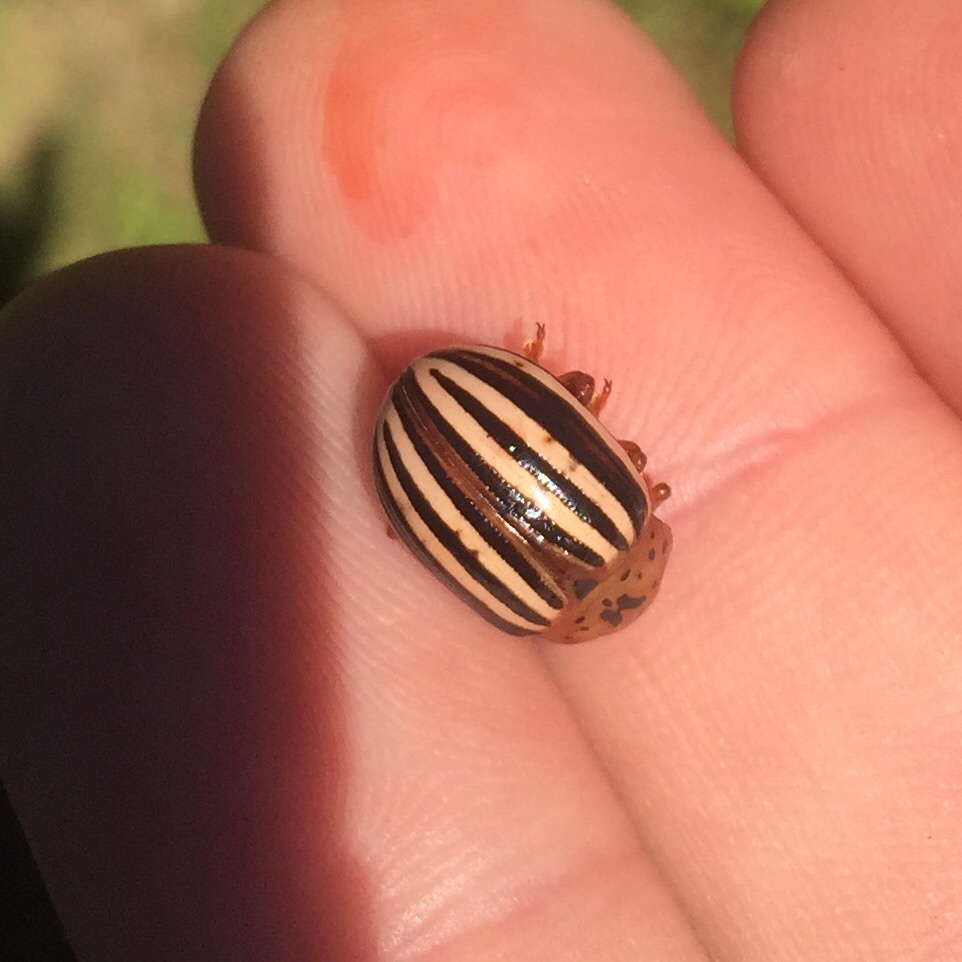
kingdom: Animalia
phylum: Arthropoda
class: Insecta
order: Coleoptera
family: Chrysomelidae
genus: Leptinotarsa
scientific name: Leptinotarsa juncta
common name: False potato beetle
